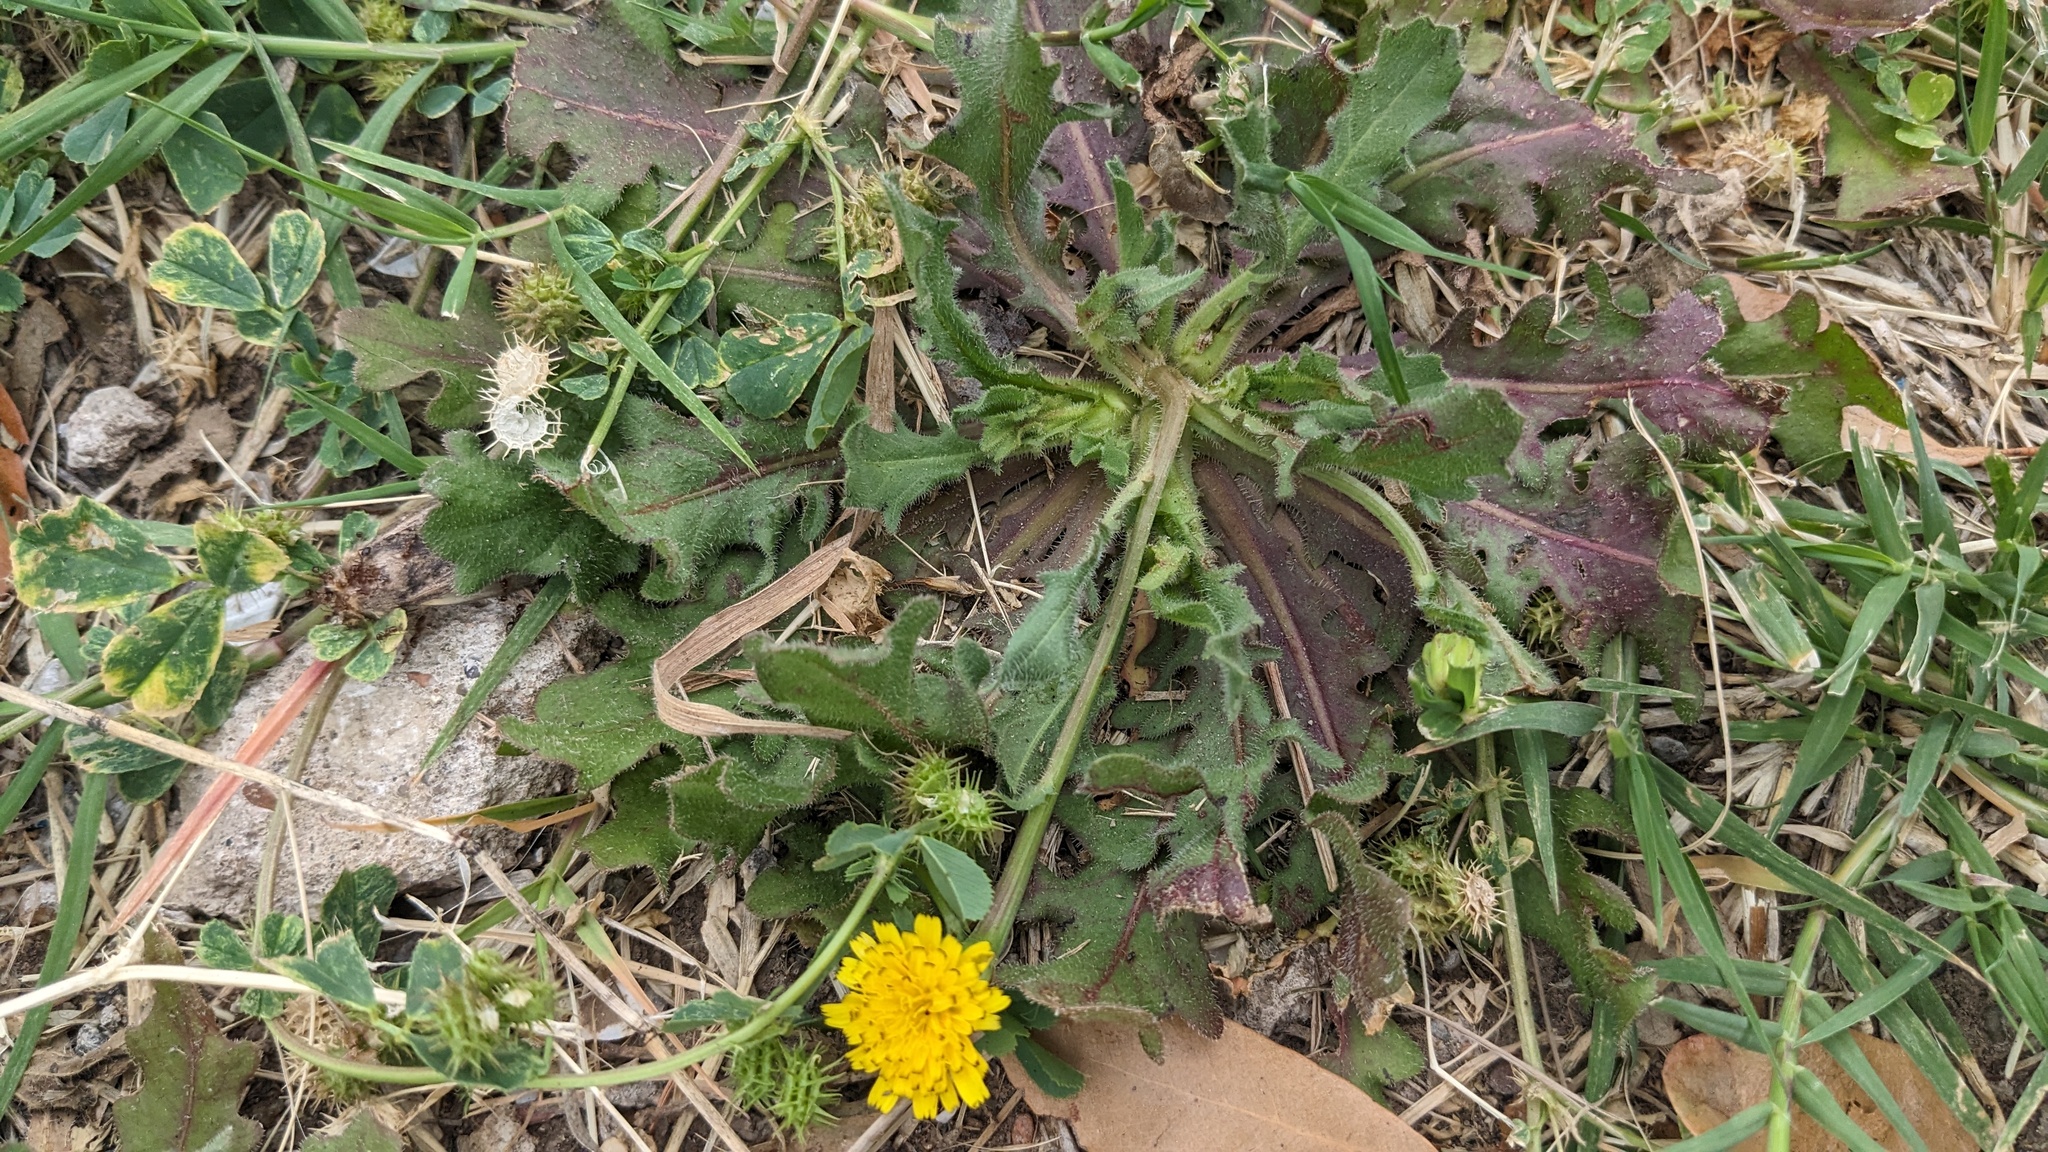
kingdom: Plantae
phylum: Tracheophyta
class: Magnoliopsida
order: Asterales
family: Asteraceae
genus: Hedypnois
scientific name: Hedypnois rhagadioloides
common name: Cretan weed
